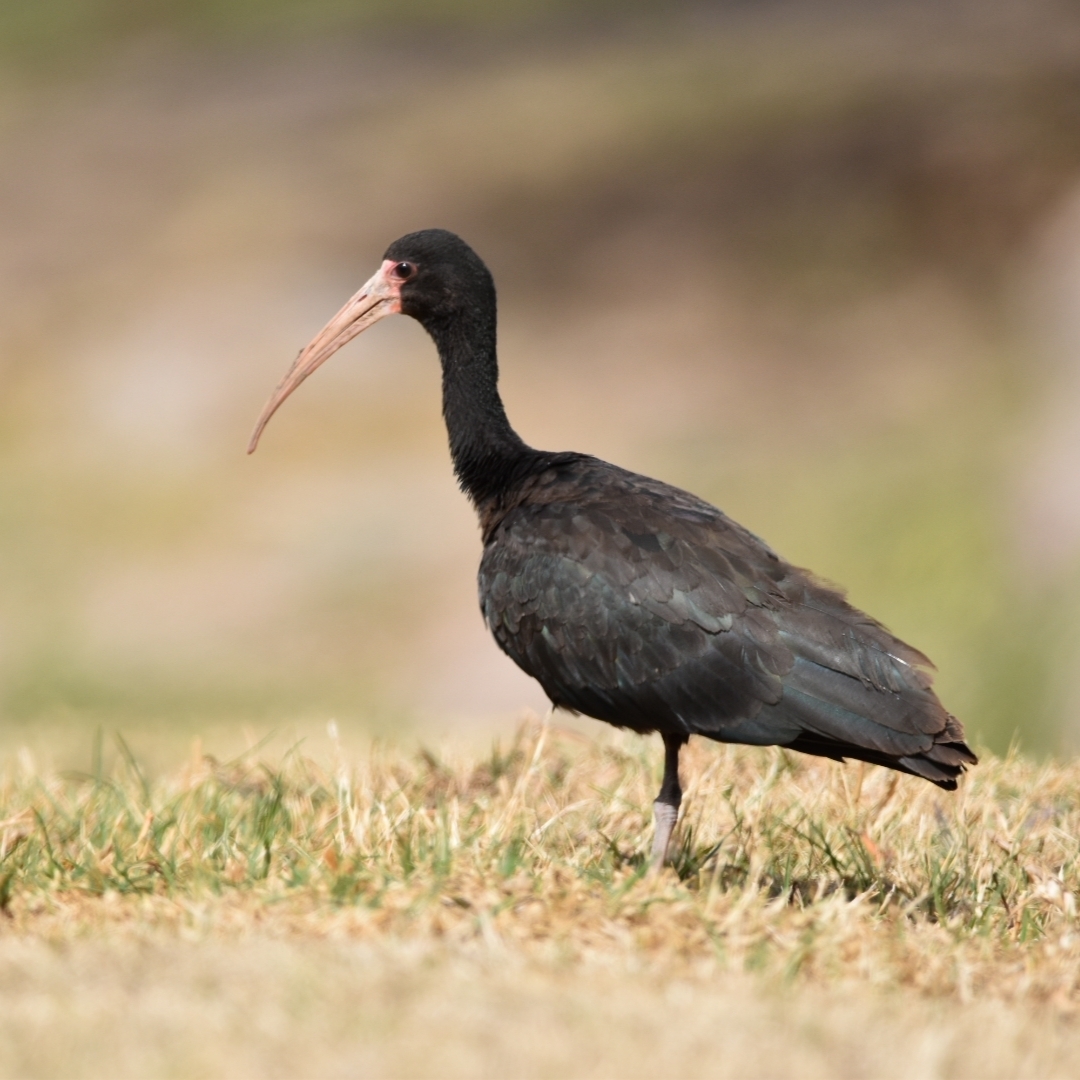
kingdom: Animalia
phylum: Chordata
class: Aves
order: Pelecaniformes
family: Threskiornithidae
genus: Phimosus
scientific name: Phimosus infuscatus
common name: Bare-faced ibis
